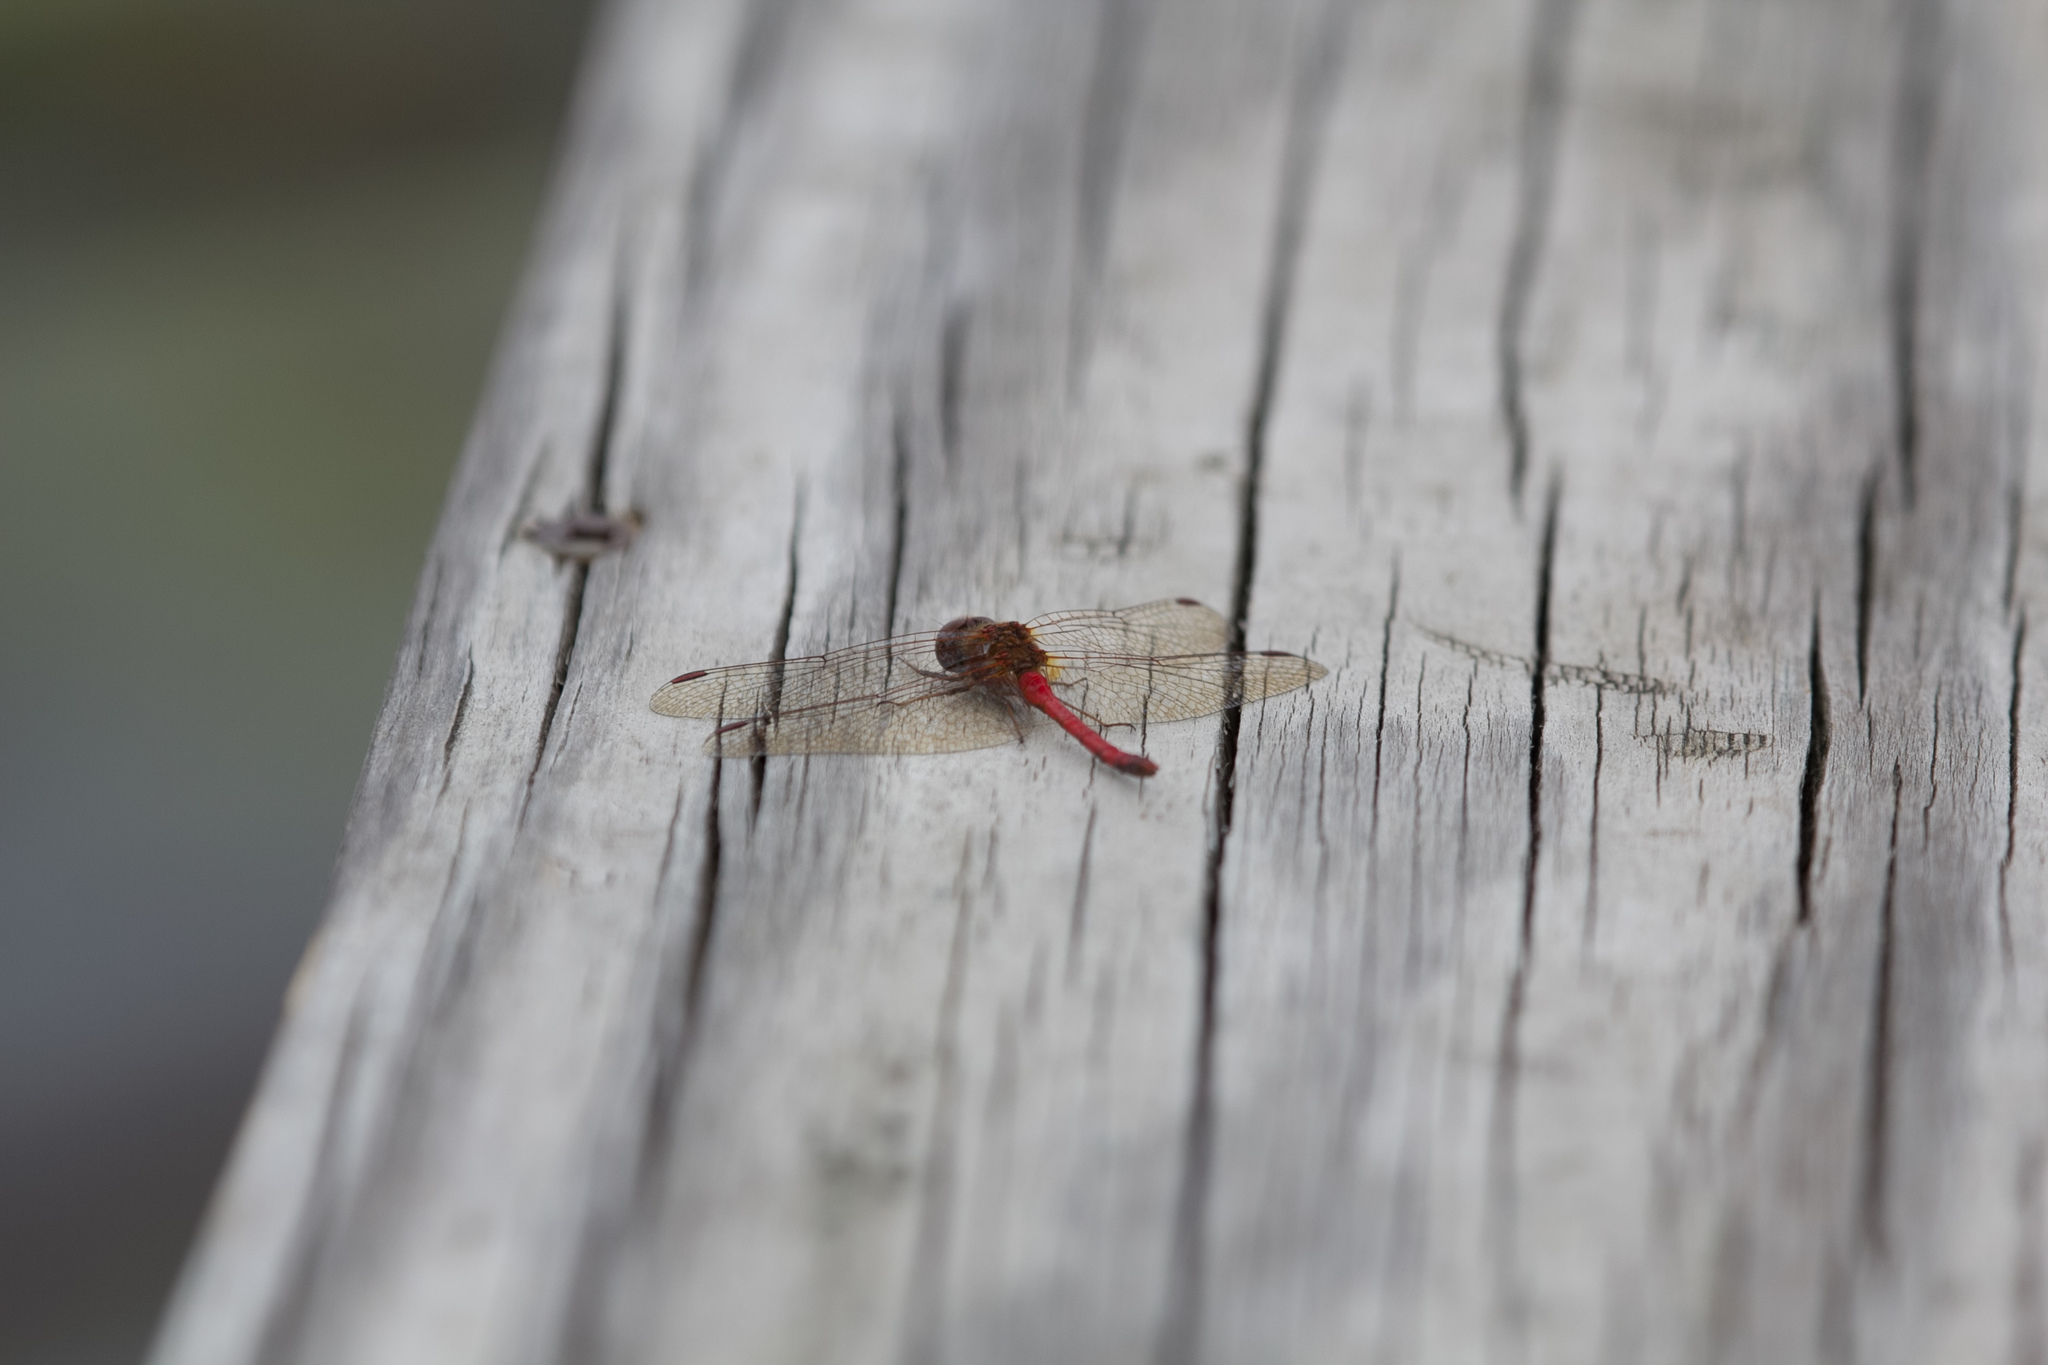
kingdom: Animalia
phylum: Arthropoda
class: Insecta
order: Odonata
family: Libellulidae
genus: Sympetrum
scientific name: Sympetrum vicinum
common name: Autumn meadowhawk
